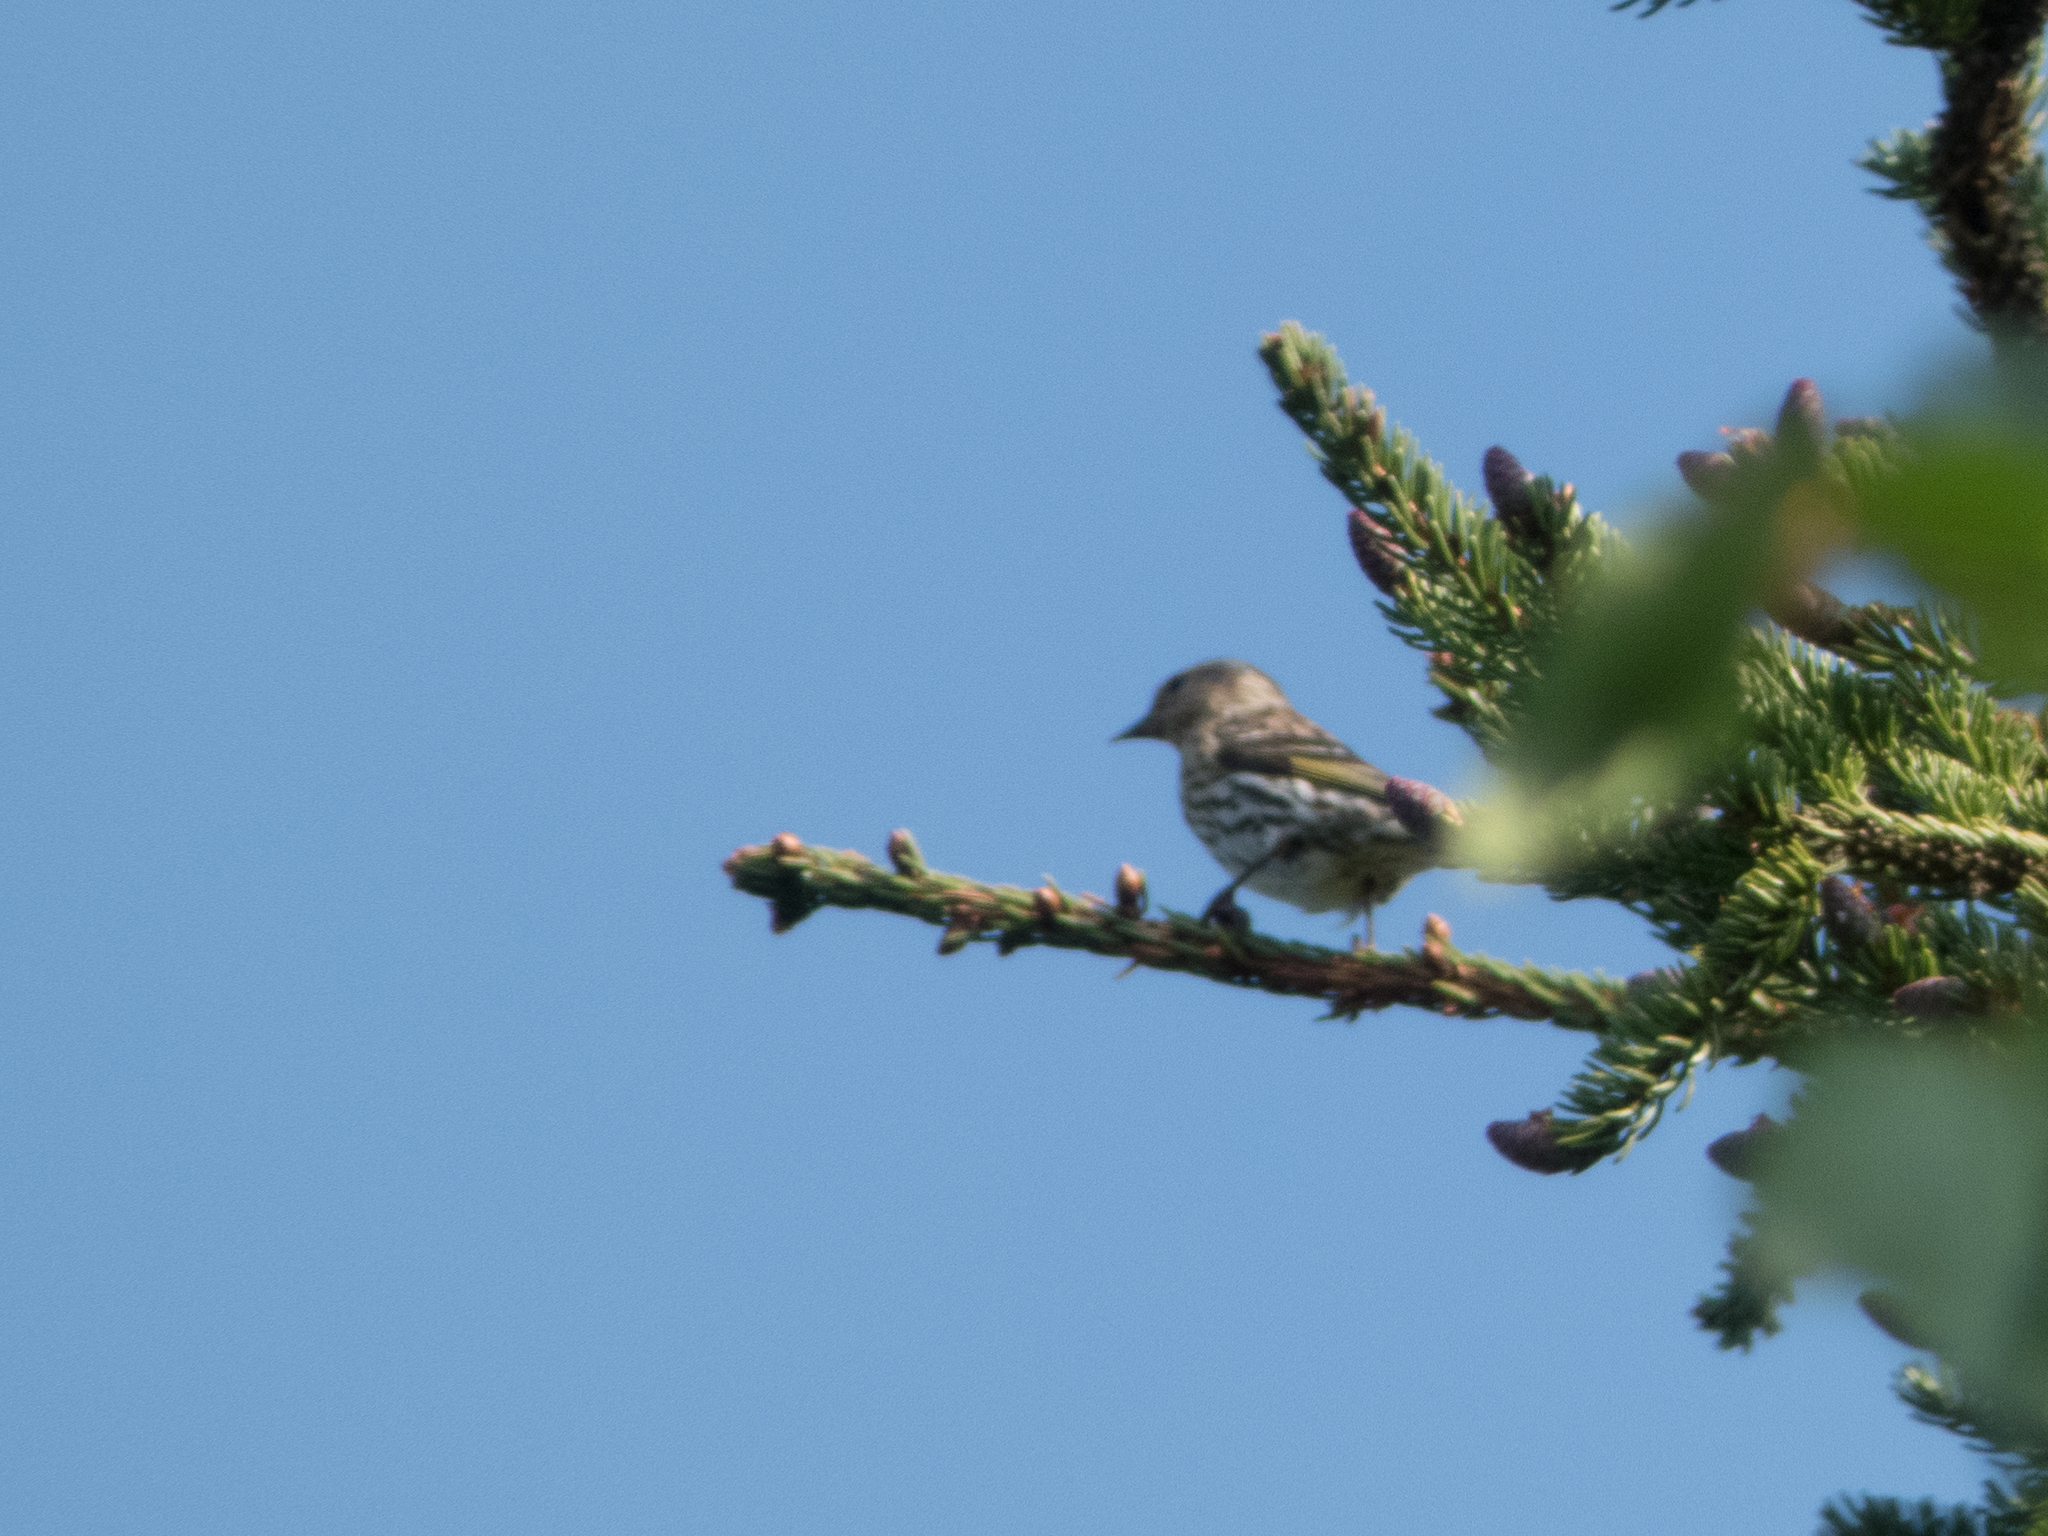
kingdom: Animalia
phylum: Chordata
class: Aves
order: Passeriformes
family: Fringillidae
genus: Spinus
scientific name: Spinus pinus
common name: Pine siskin
